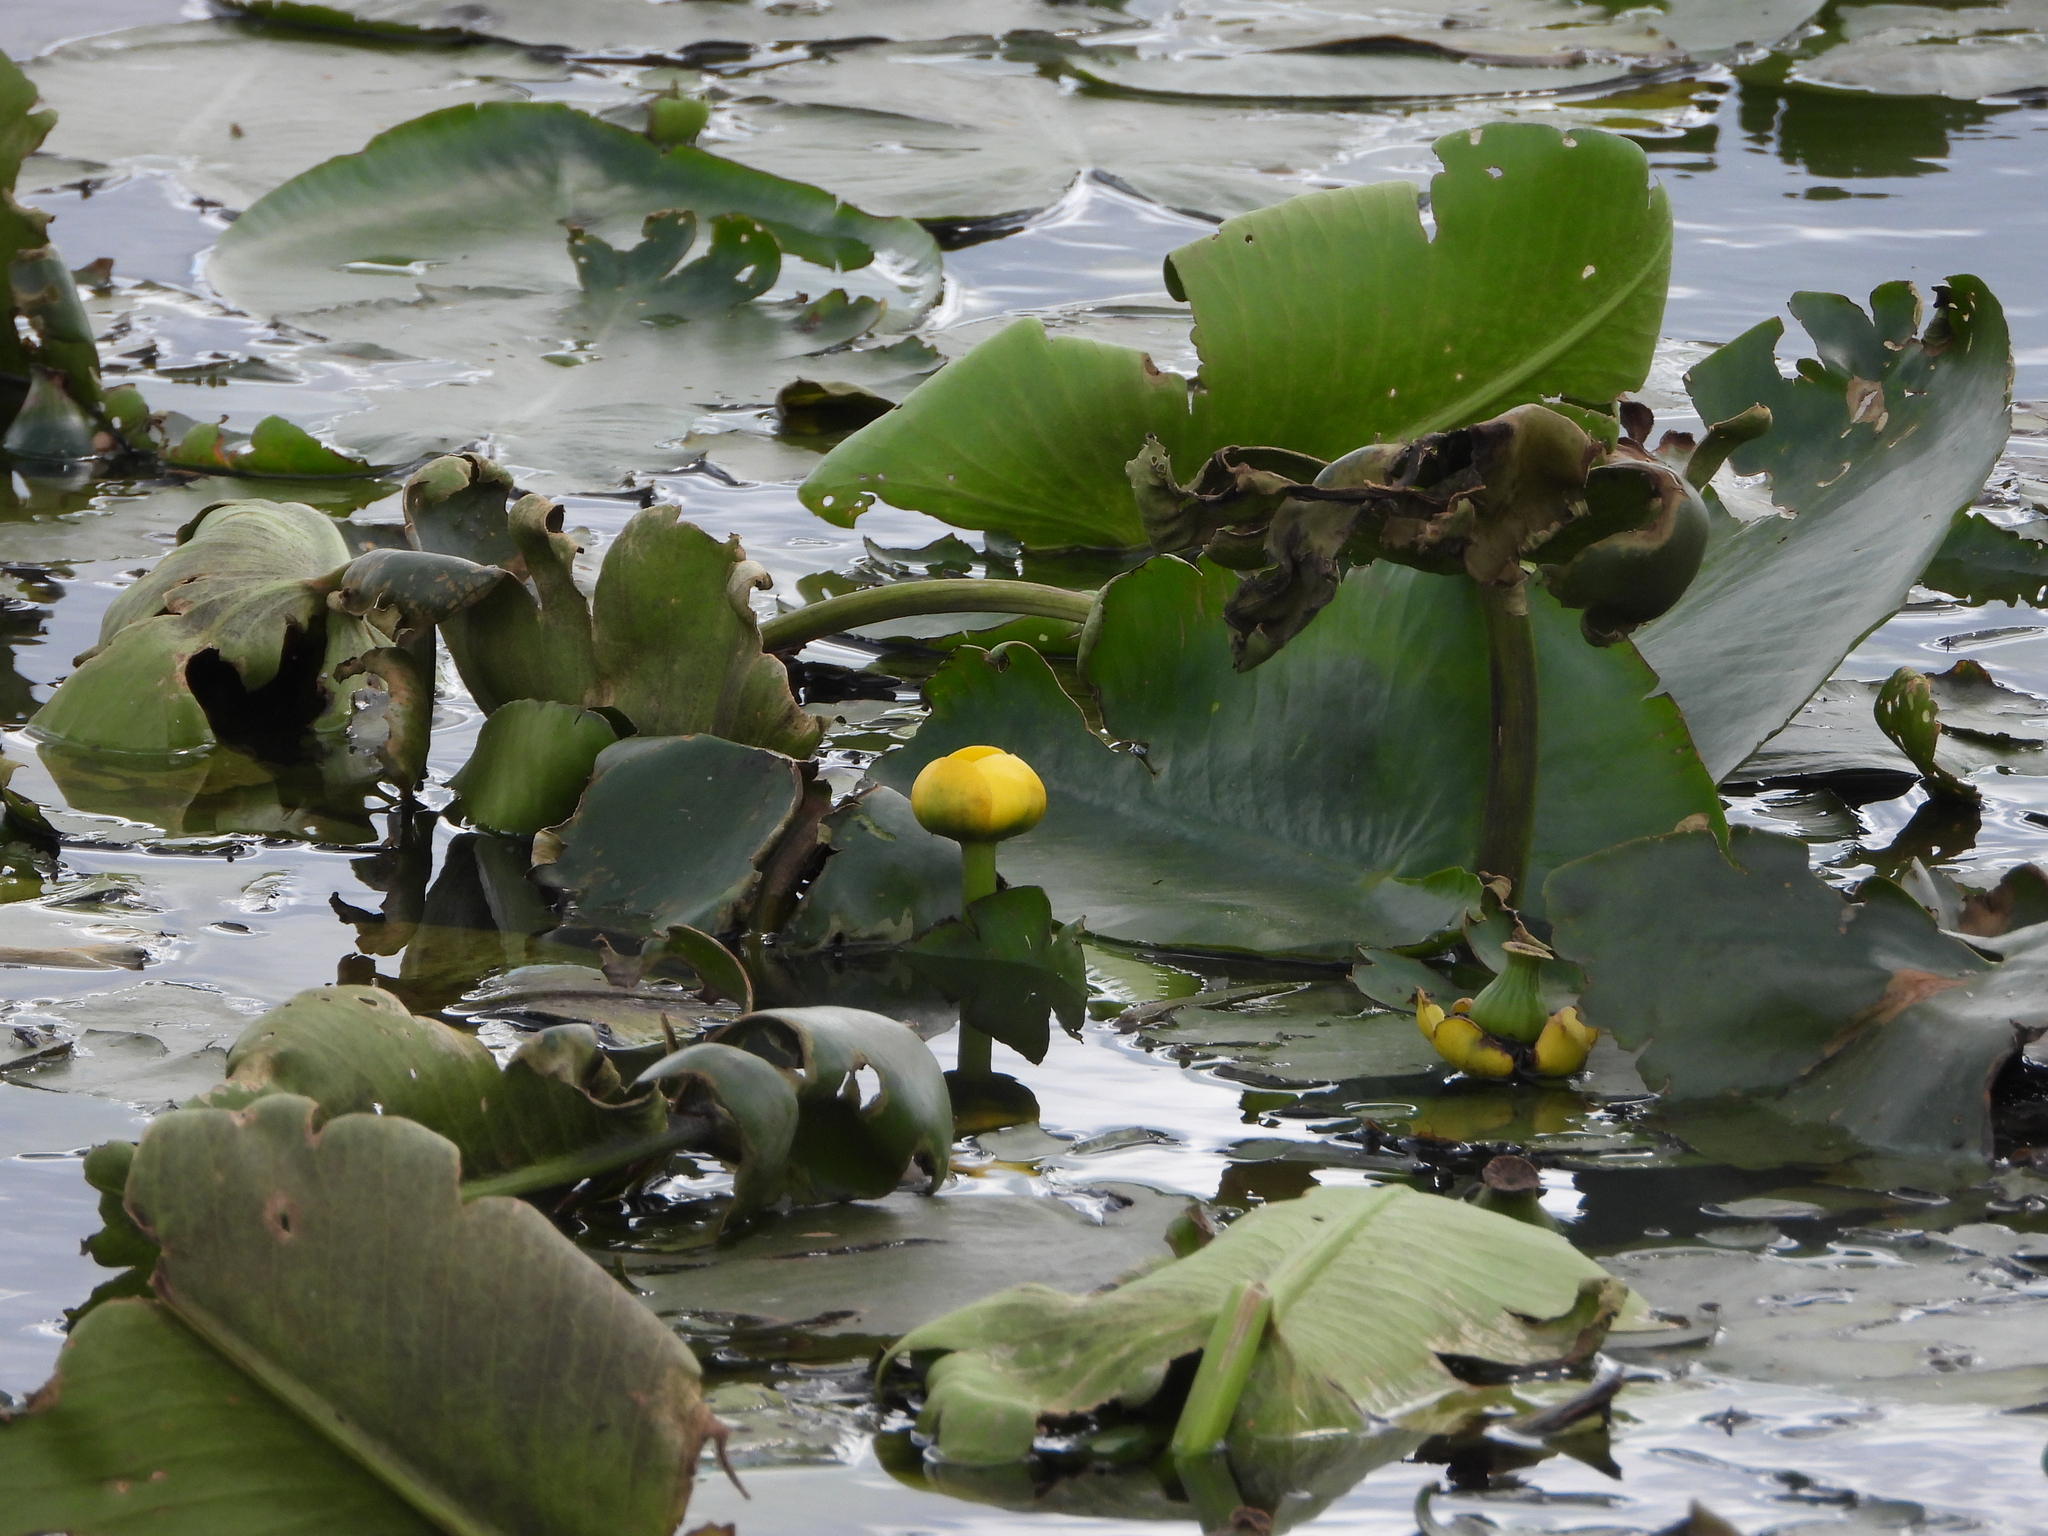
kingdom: Plantae
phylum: Tracheophyta
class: Magnoliopsida
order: Nymphaeales
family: Nymphaeaceae
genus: Nuphar
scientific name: Nuphar lutea
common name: Yellow water-lily
